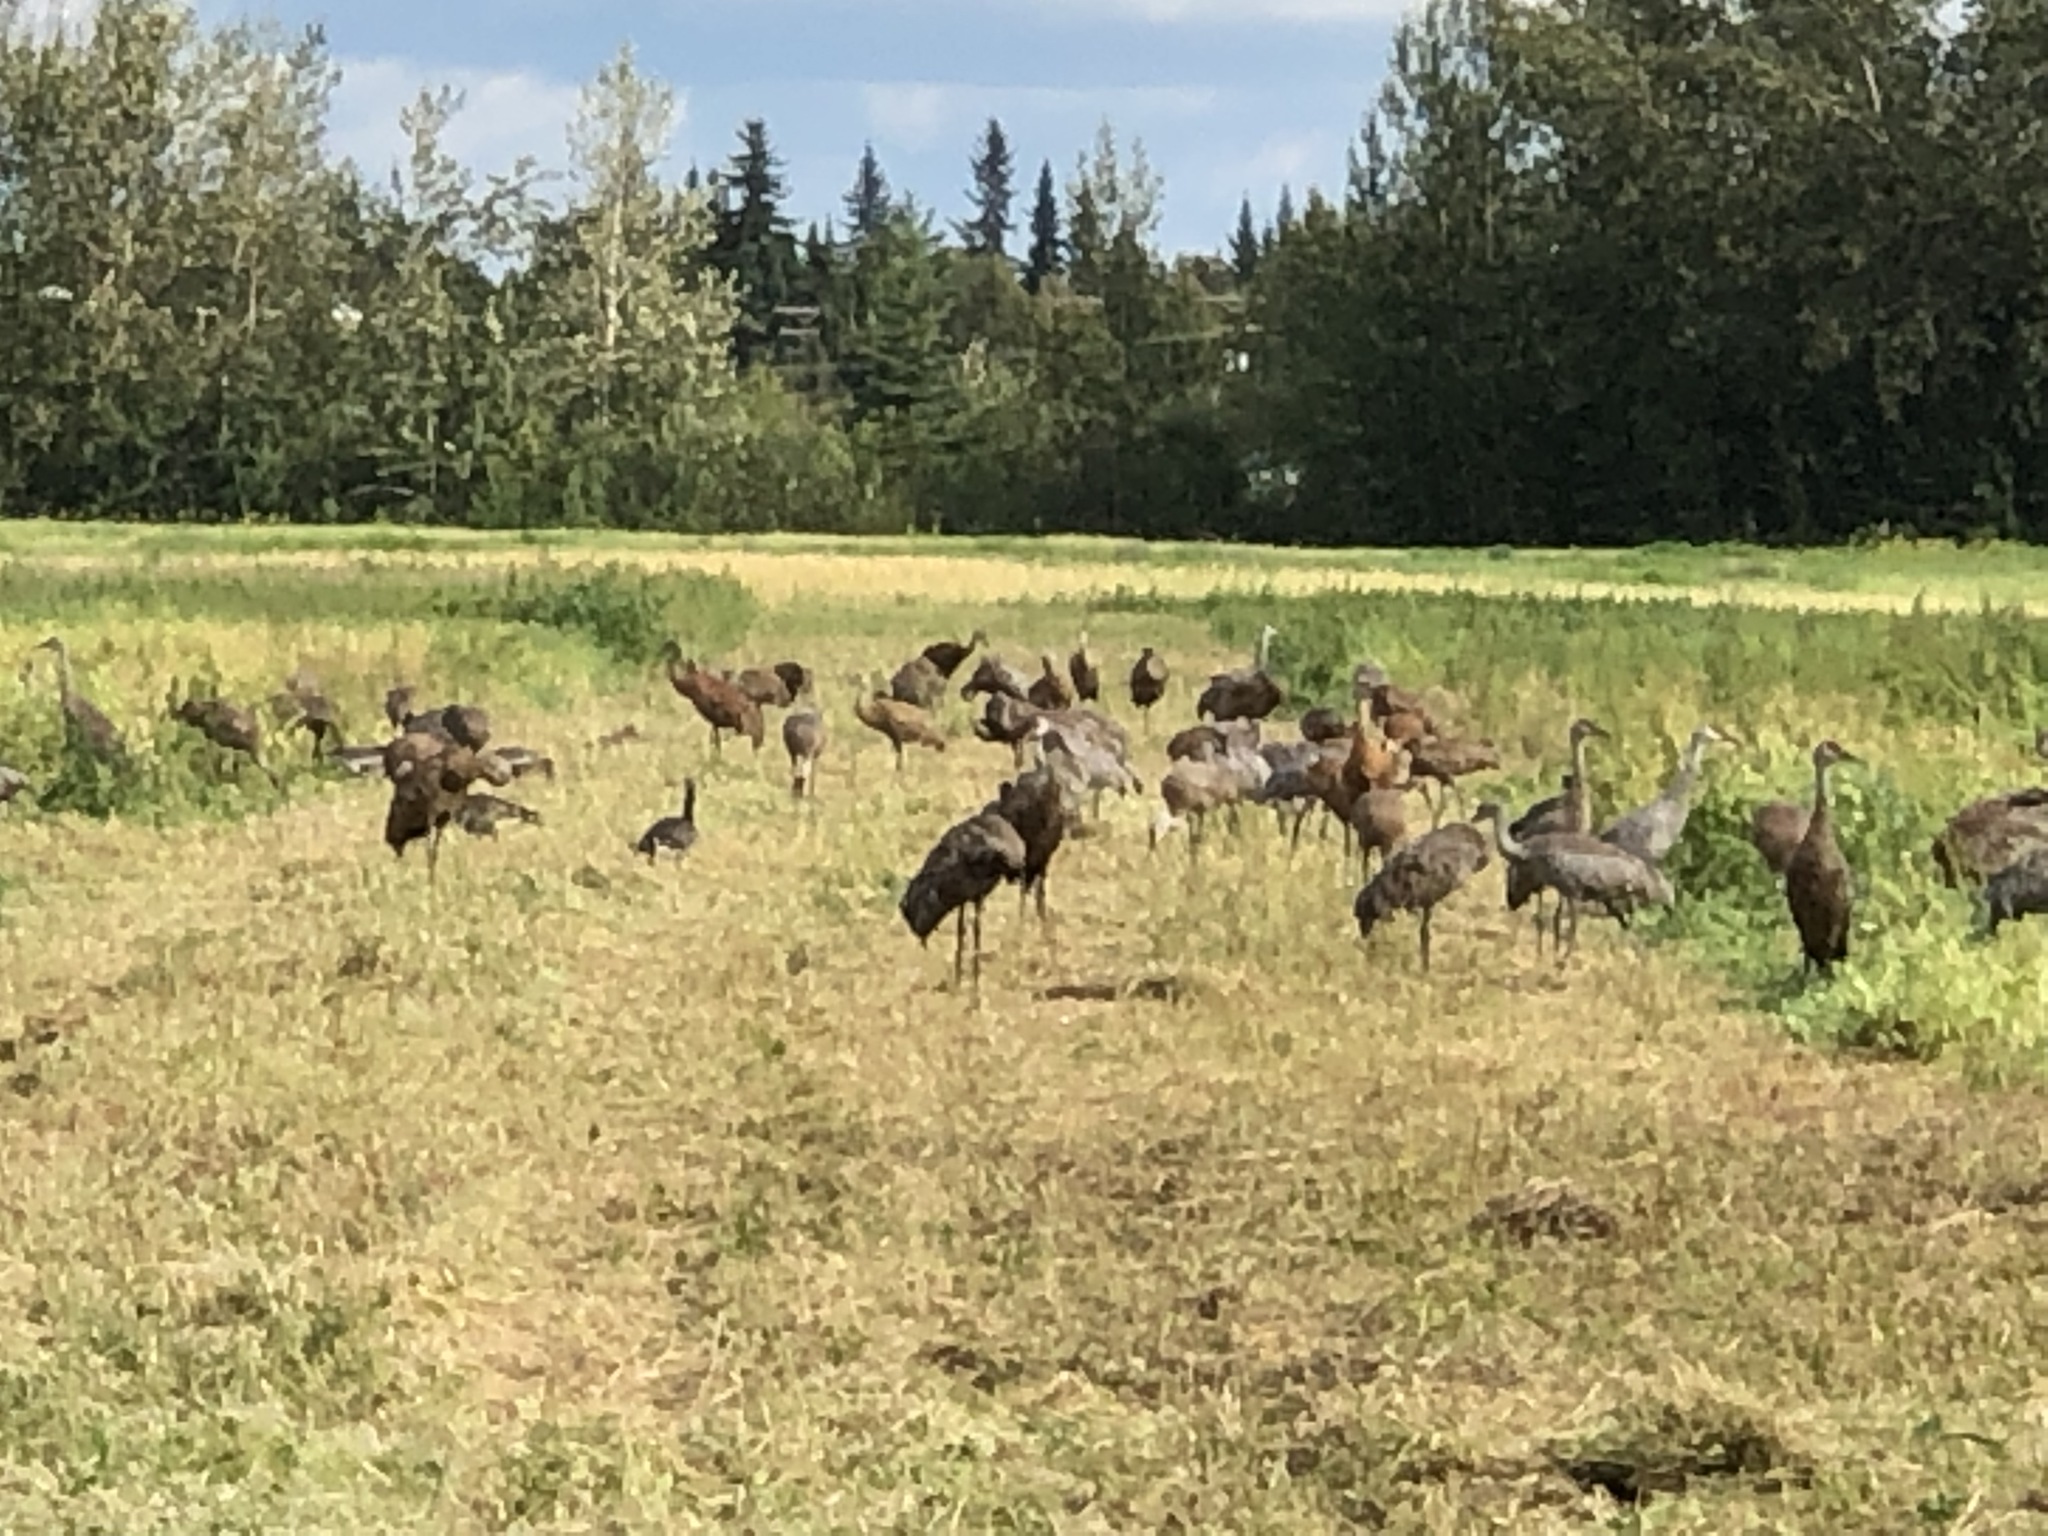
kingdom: Animalia
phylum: Chordata
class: Aves
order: Gruiformes
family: Gruidae
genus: Grus
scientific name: Grus canadensis
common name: Sandhill crane
